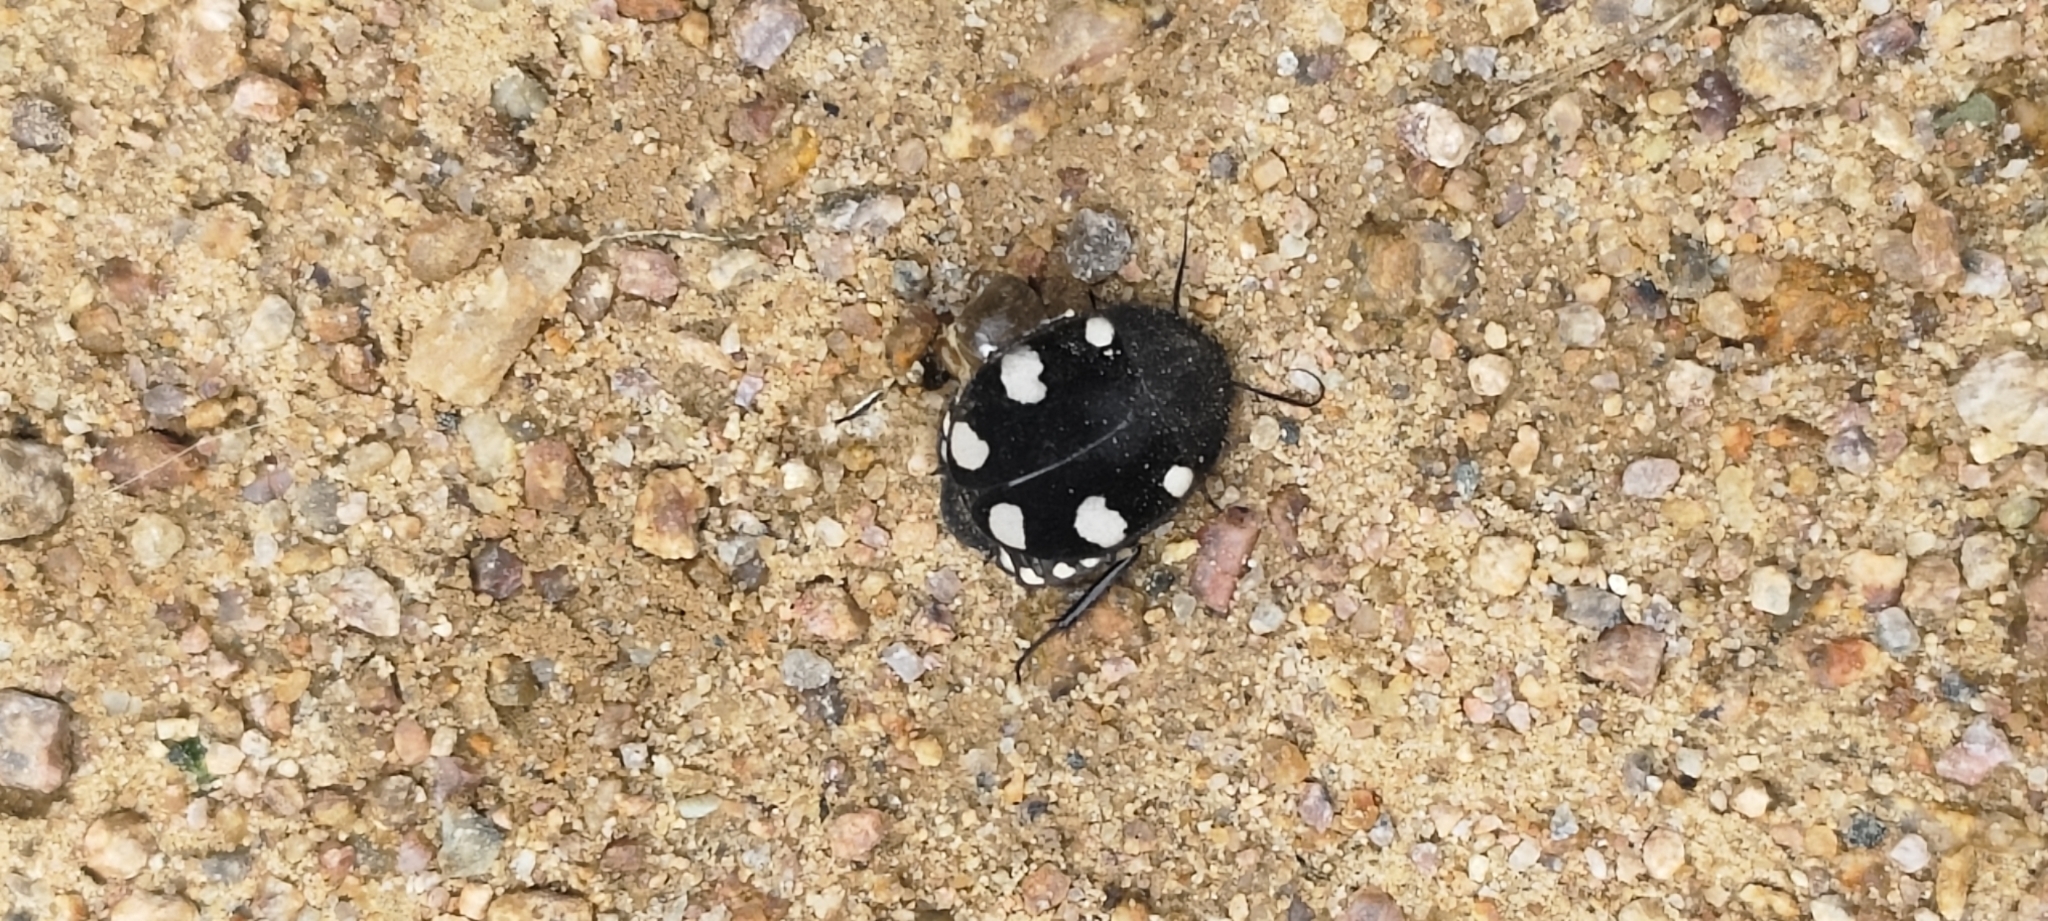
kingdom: Animalia
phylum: Arthropoda
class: Insecta
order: Blattodea
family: Corydiidae
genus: Therea
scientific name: Therea petiveriana
